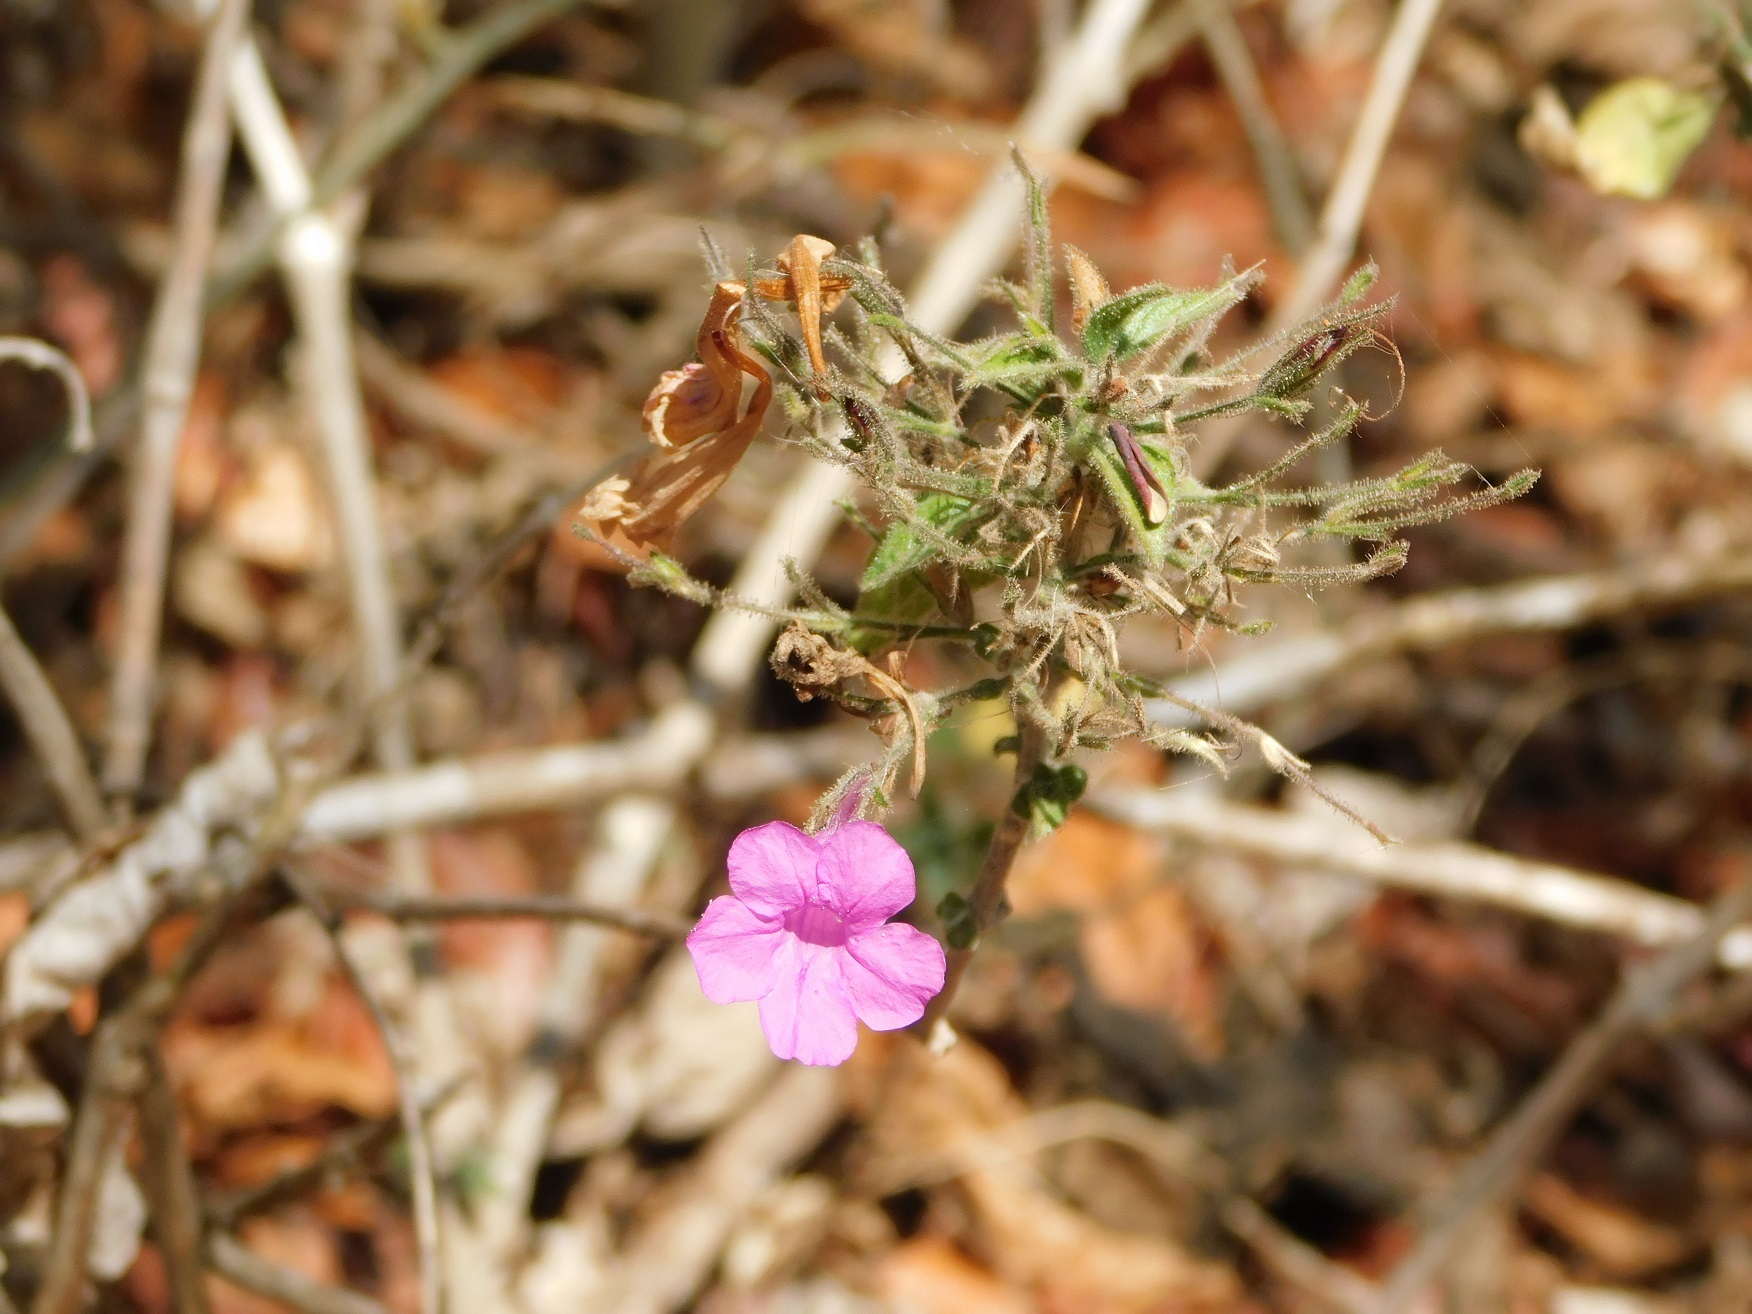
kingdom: Plantae
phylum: Tracheophyta
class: Magnoliopsida
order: Lamiales
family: Acanthaceae
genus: Ruellia
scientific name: Ruellia inundata
